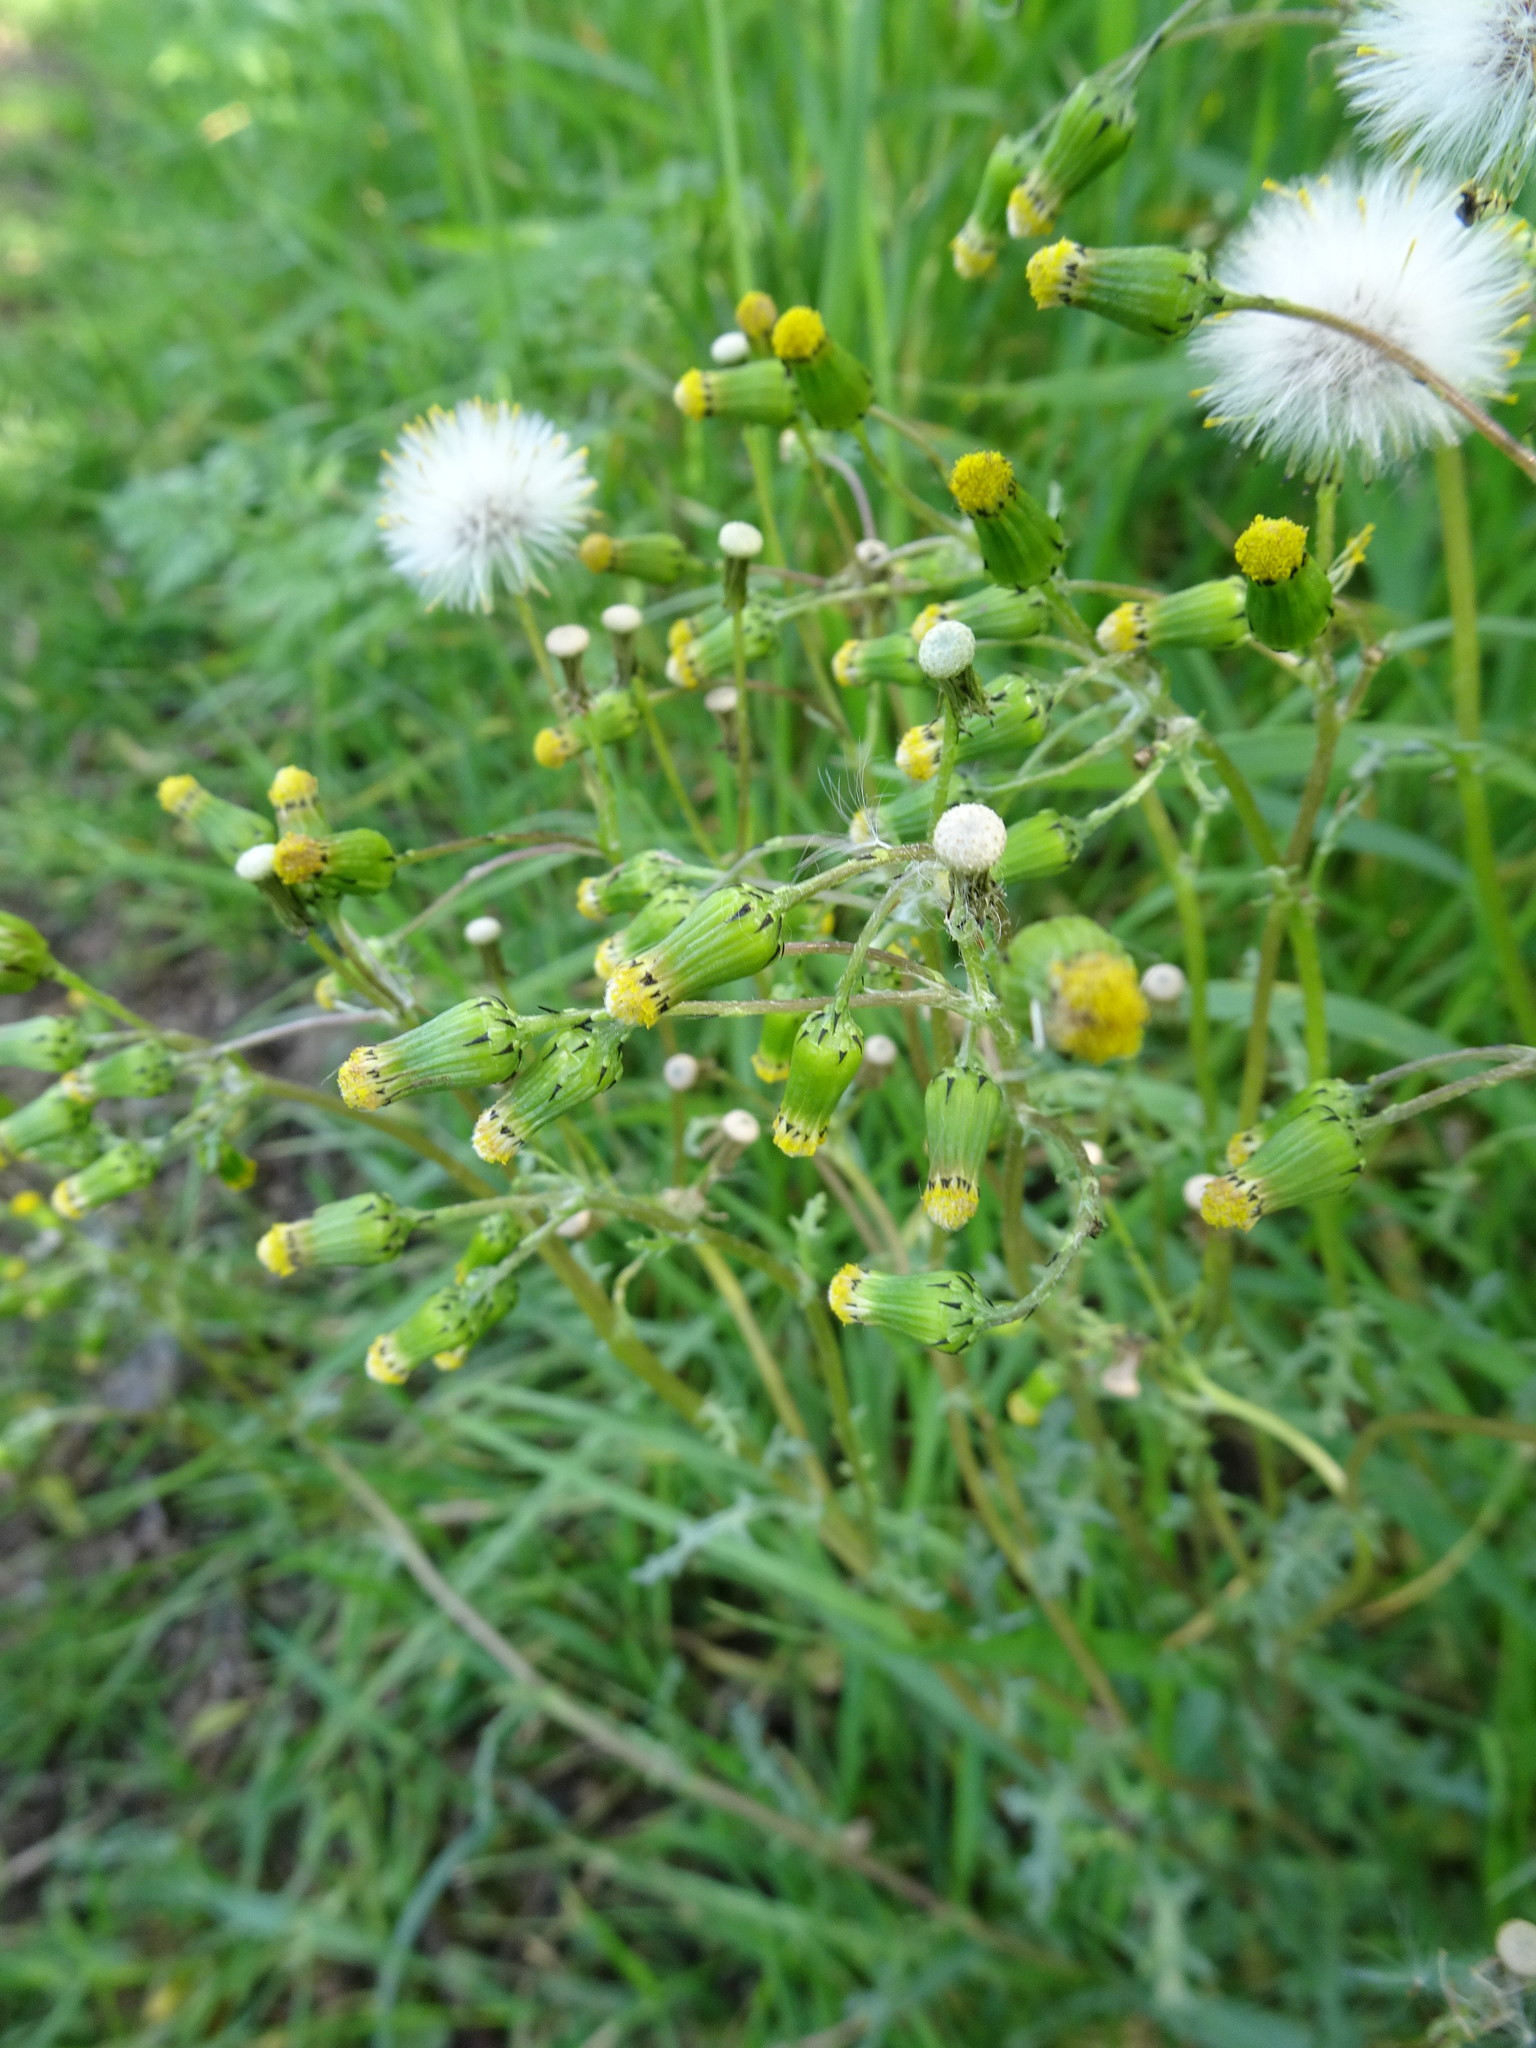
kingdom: Plantae
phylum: Tracheophyta
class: Magnoliopsida
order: Asterales
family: Asteraceae
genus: Senecio
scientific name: Senecio vulgaris
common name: Old-man-in-the-spring
